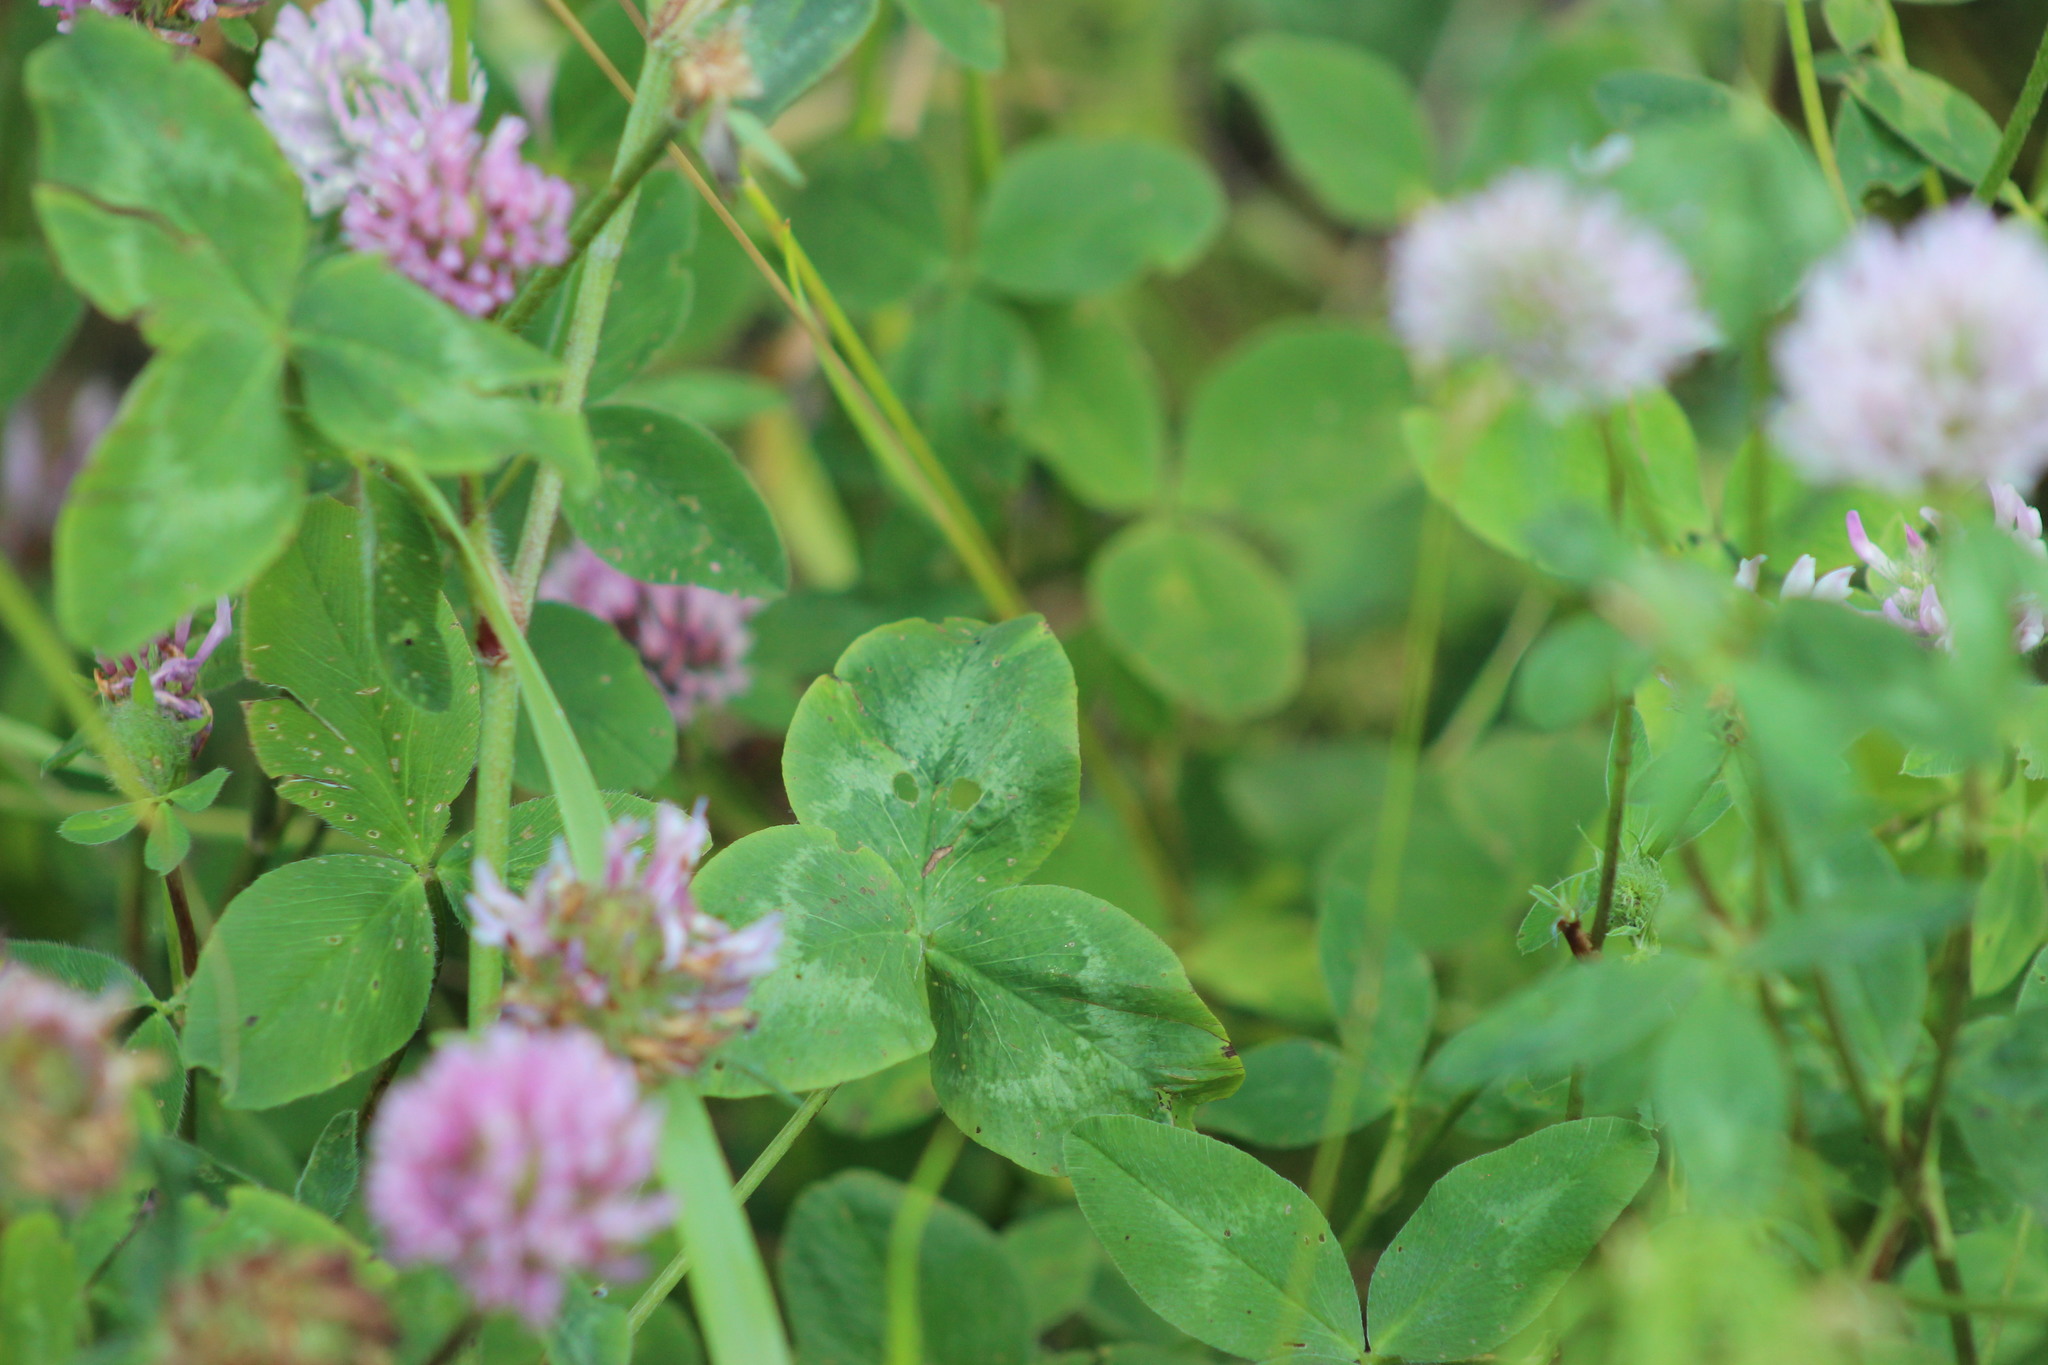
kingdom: Plantae
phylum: Tracheophyta
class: Magnoliopsida
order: Fabales
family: Fabaceae
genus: Trifolium
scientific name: Trifolium pratense
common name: Red clover
